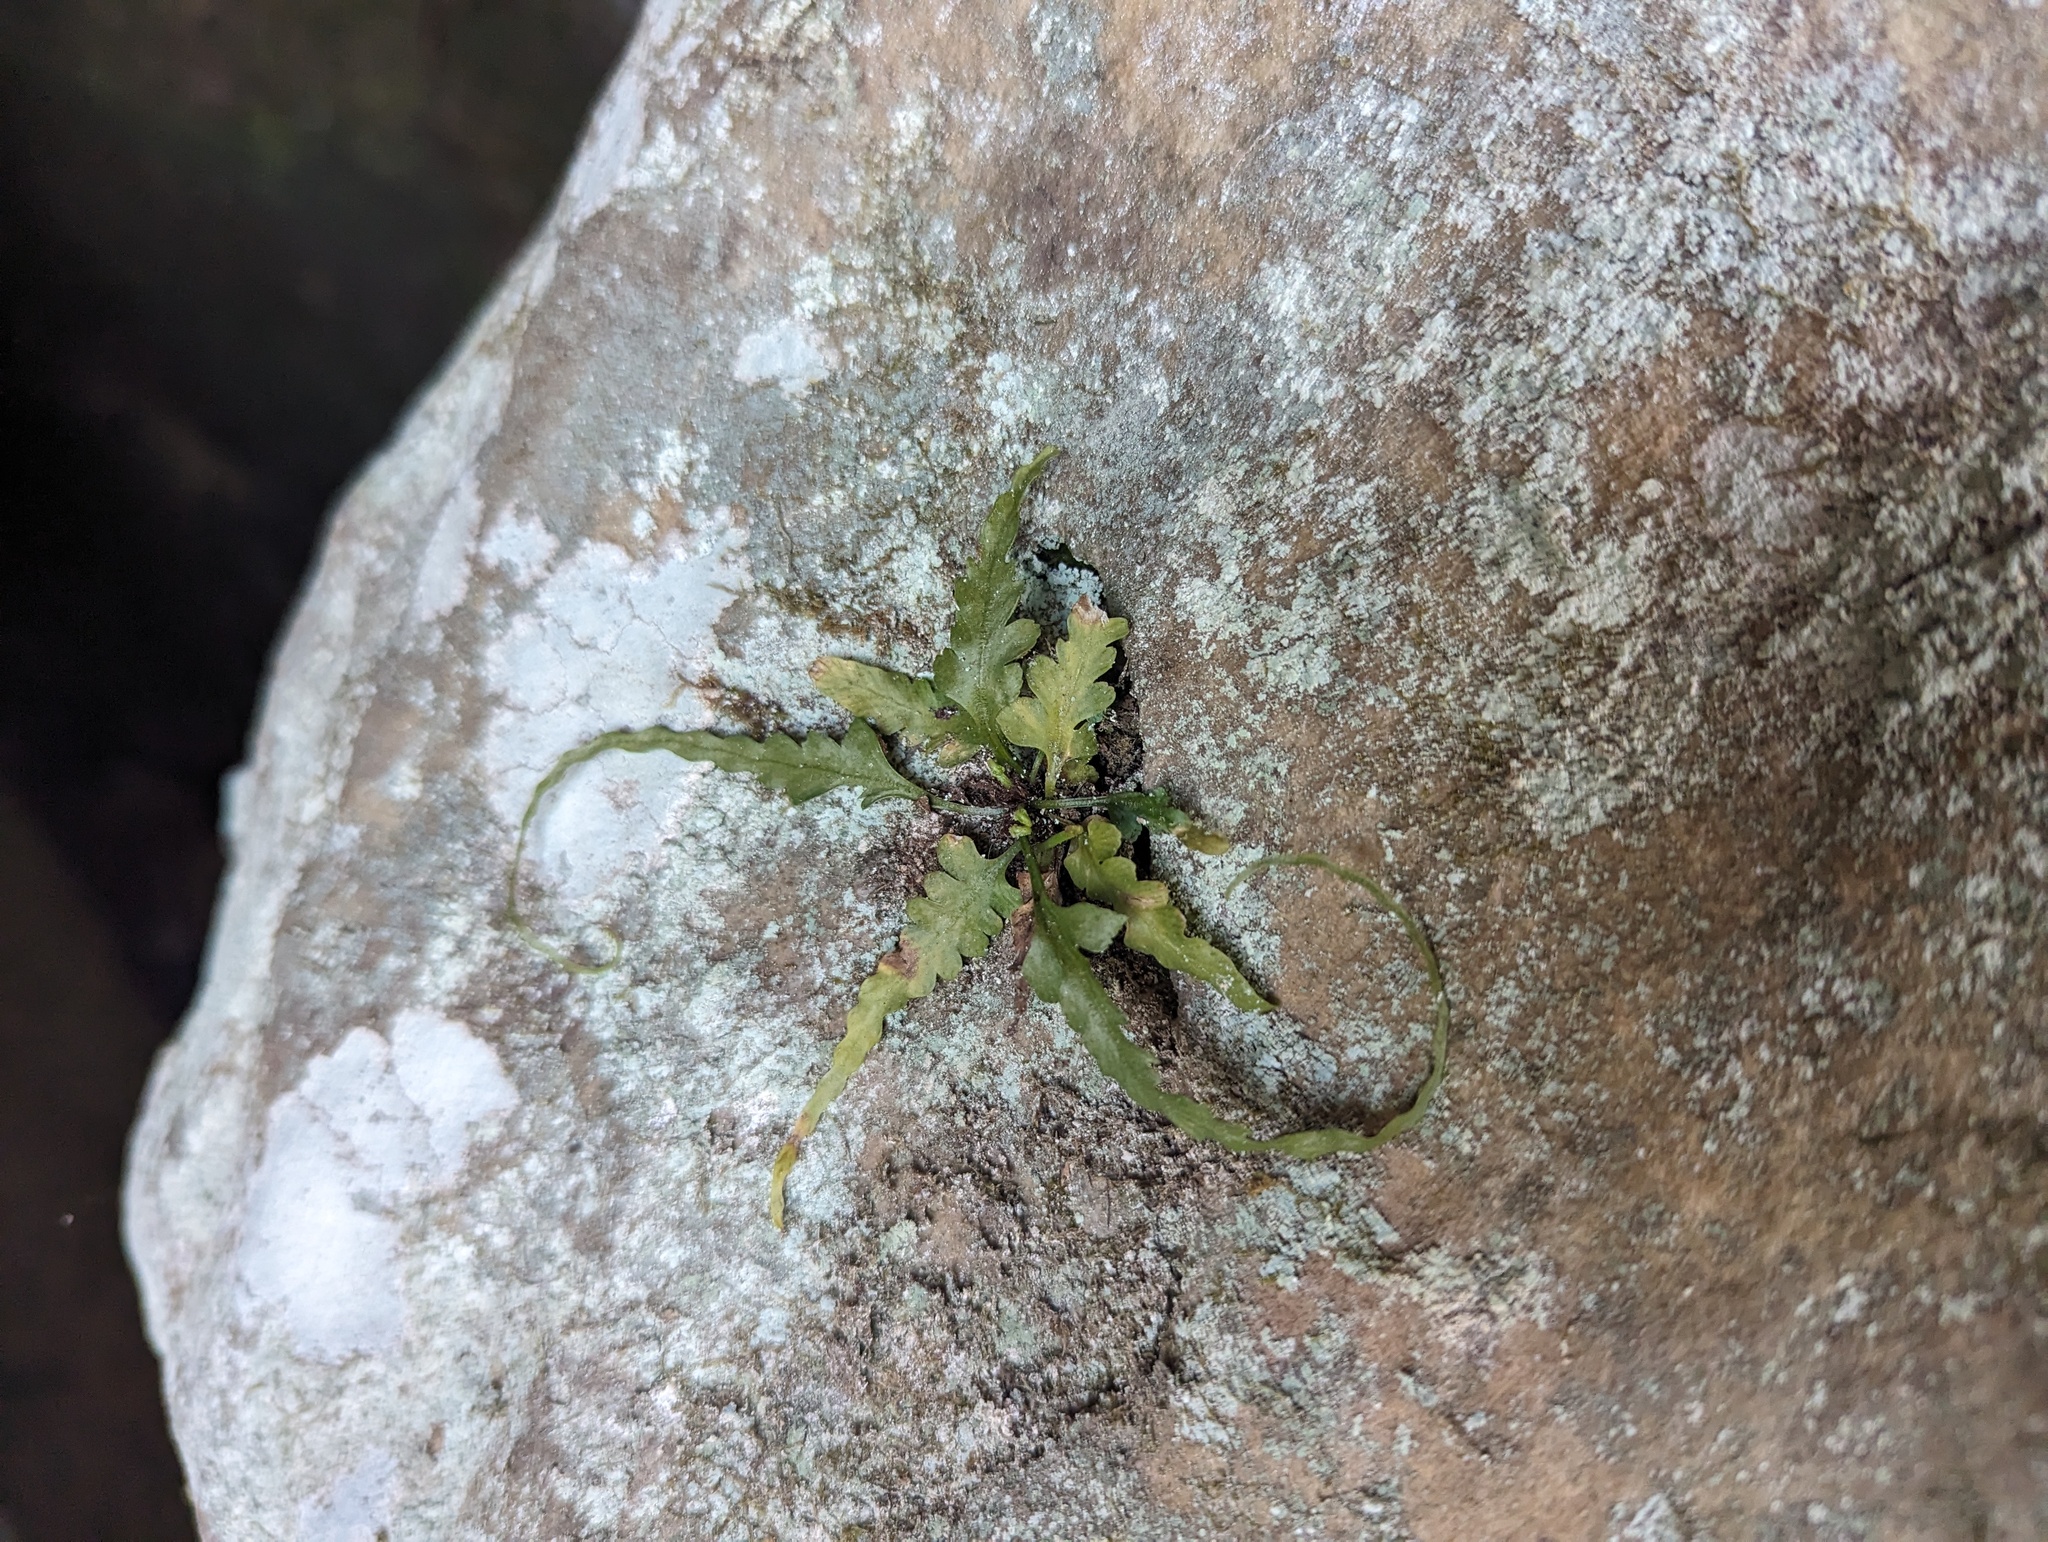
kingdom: Plantae
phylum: Tracheophyta
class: Polypodiopsida
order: Polypodiales
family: Aspleniaceae
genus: Asplenium
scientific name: Asplenium pinnatifidum
